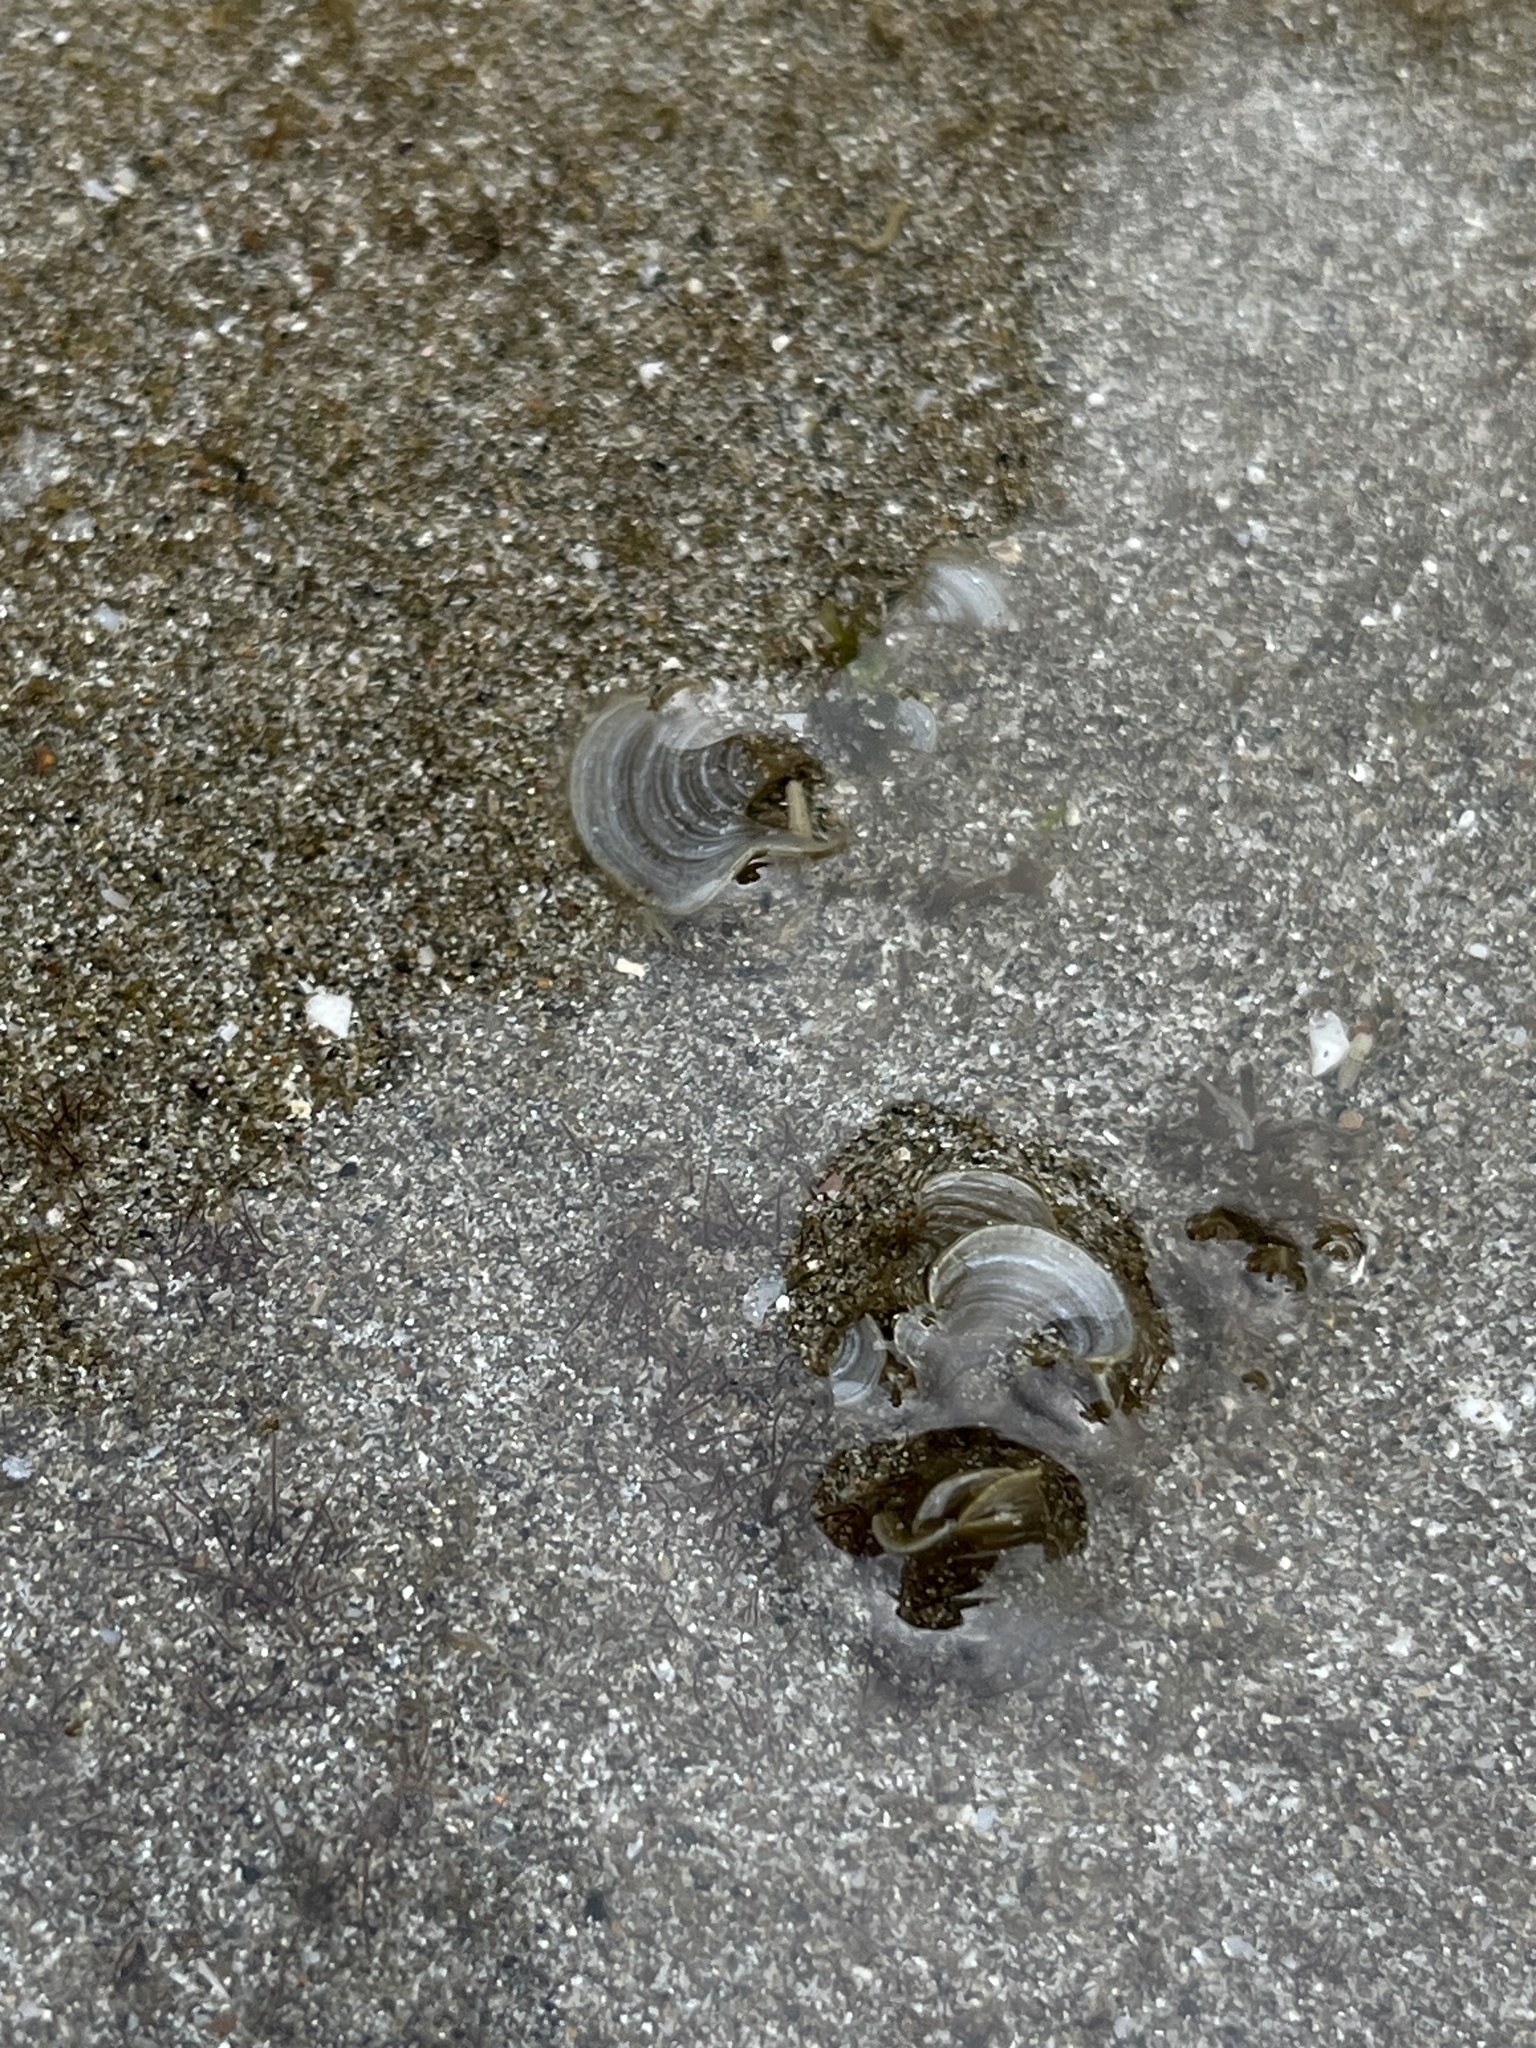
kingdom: Chromista
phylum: Ochrophyta
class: Phaeophyceae
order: Dictyotales
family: Dictyotaceae
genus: Padina
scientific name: Padina pavonica
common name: Turkey feather alga
